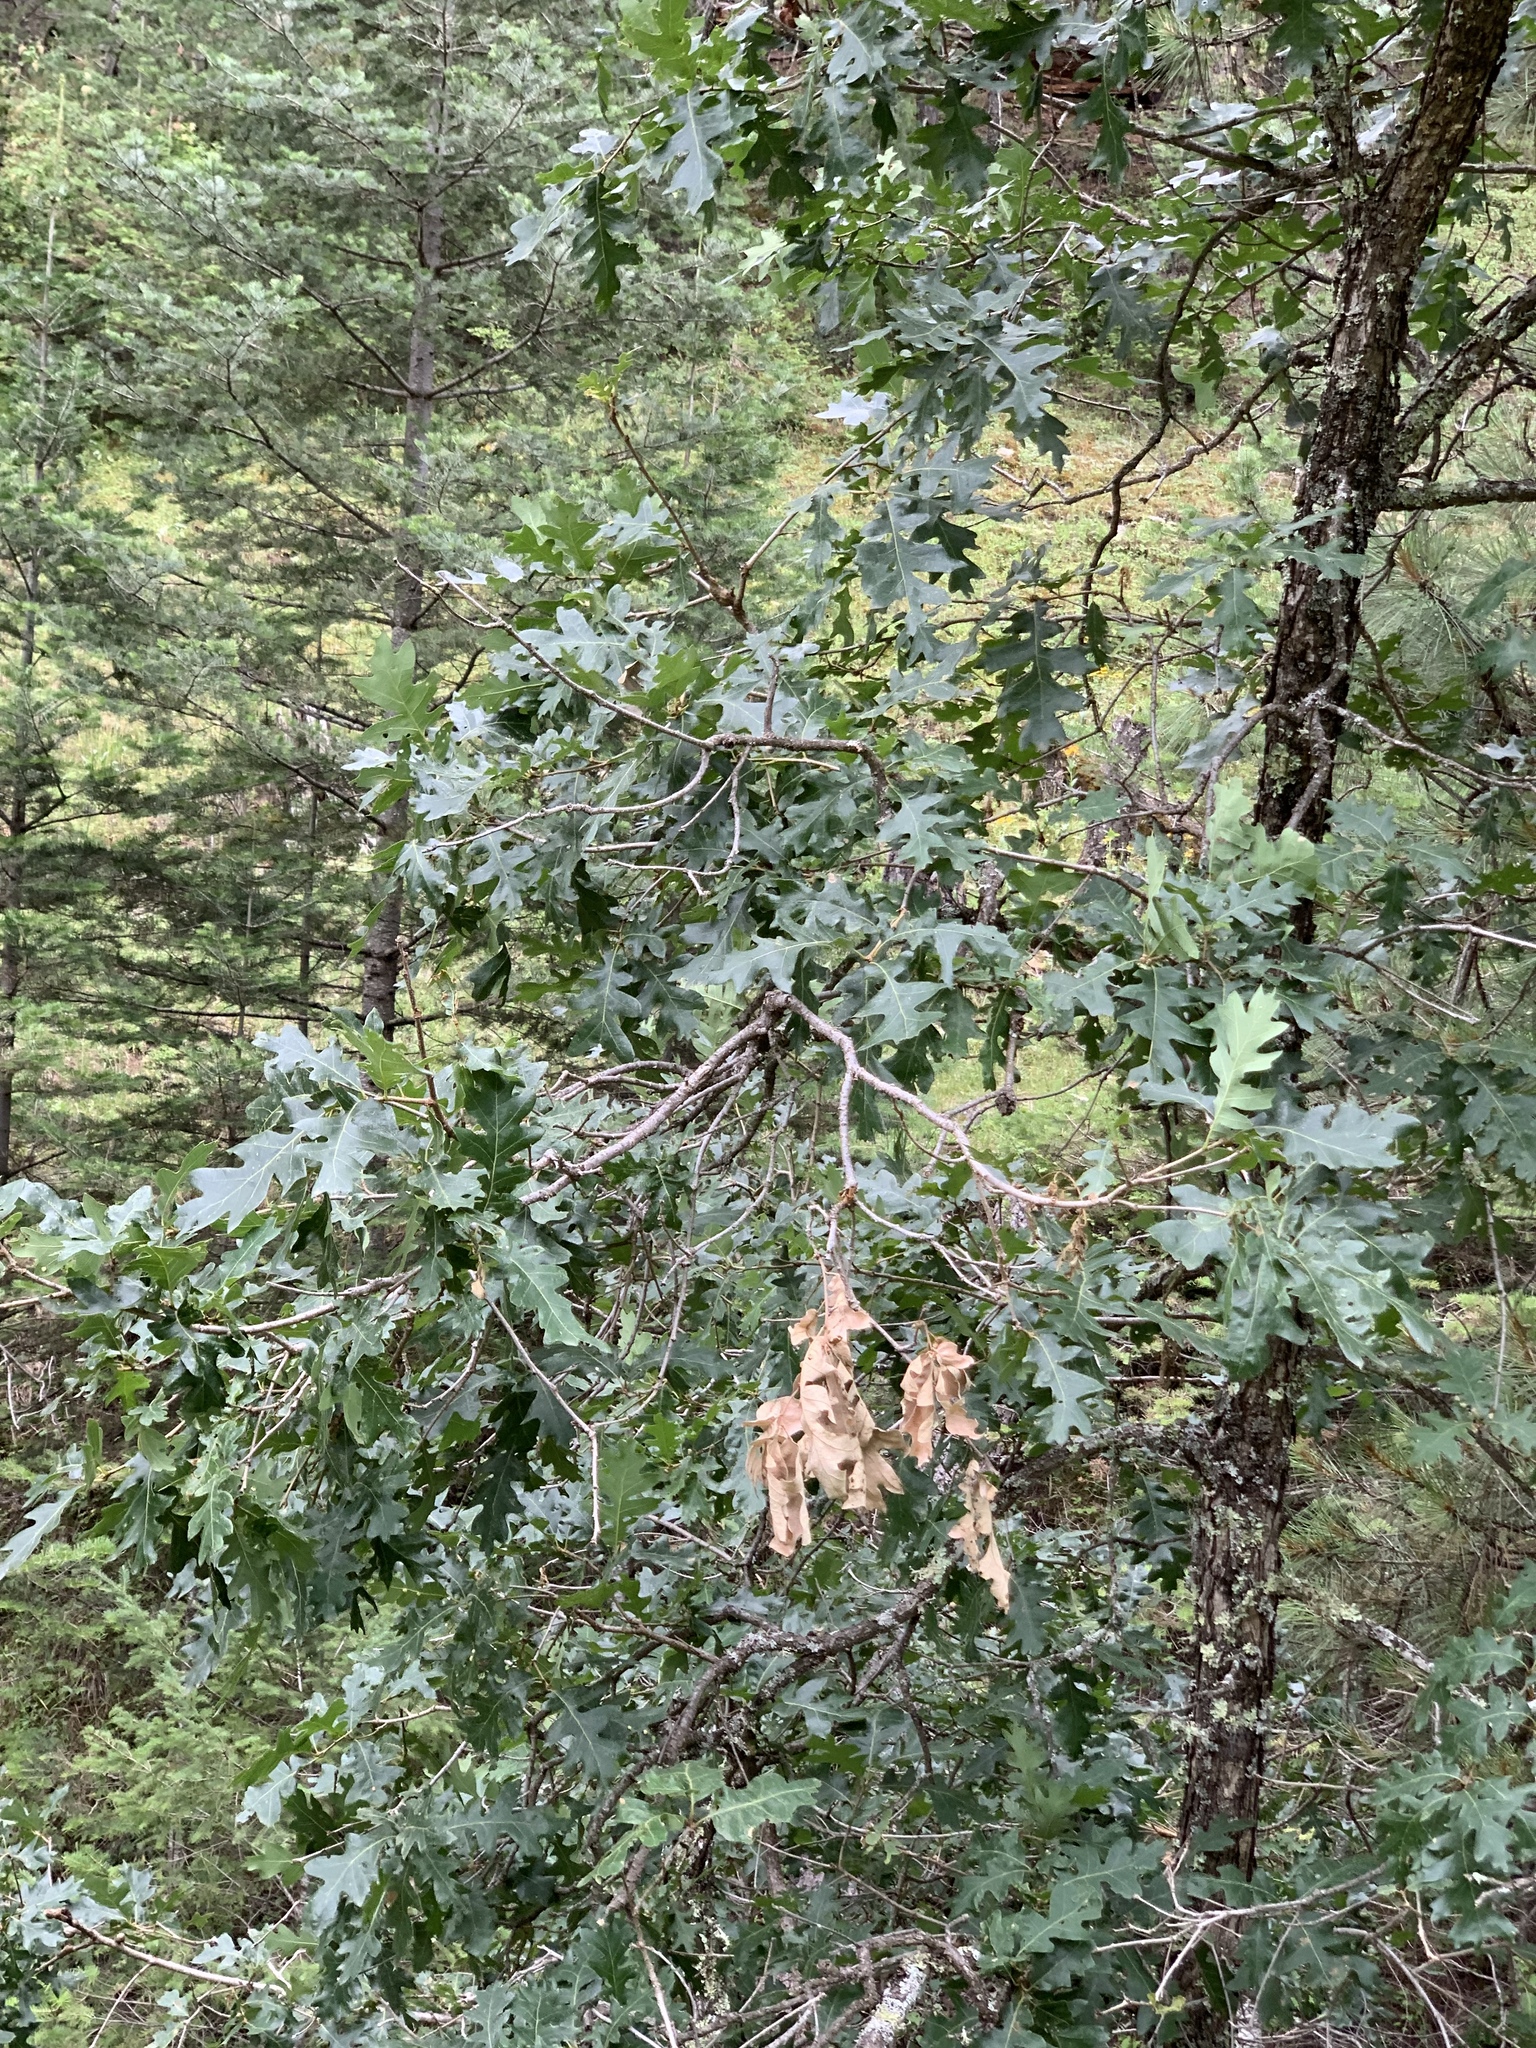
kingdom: Plantae
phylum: Tracheophyta
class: Magnoliopsida
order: Fagales
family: Fagaceae
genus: Quercus
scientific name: Quercus gambelii
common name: Gambel oak
